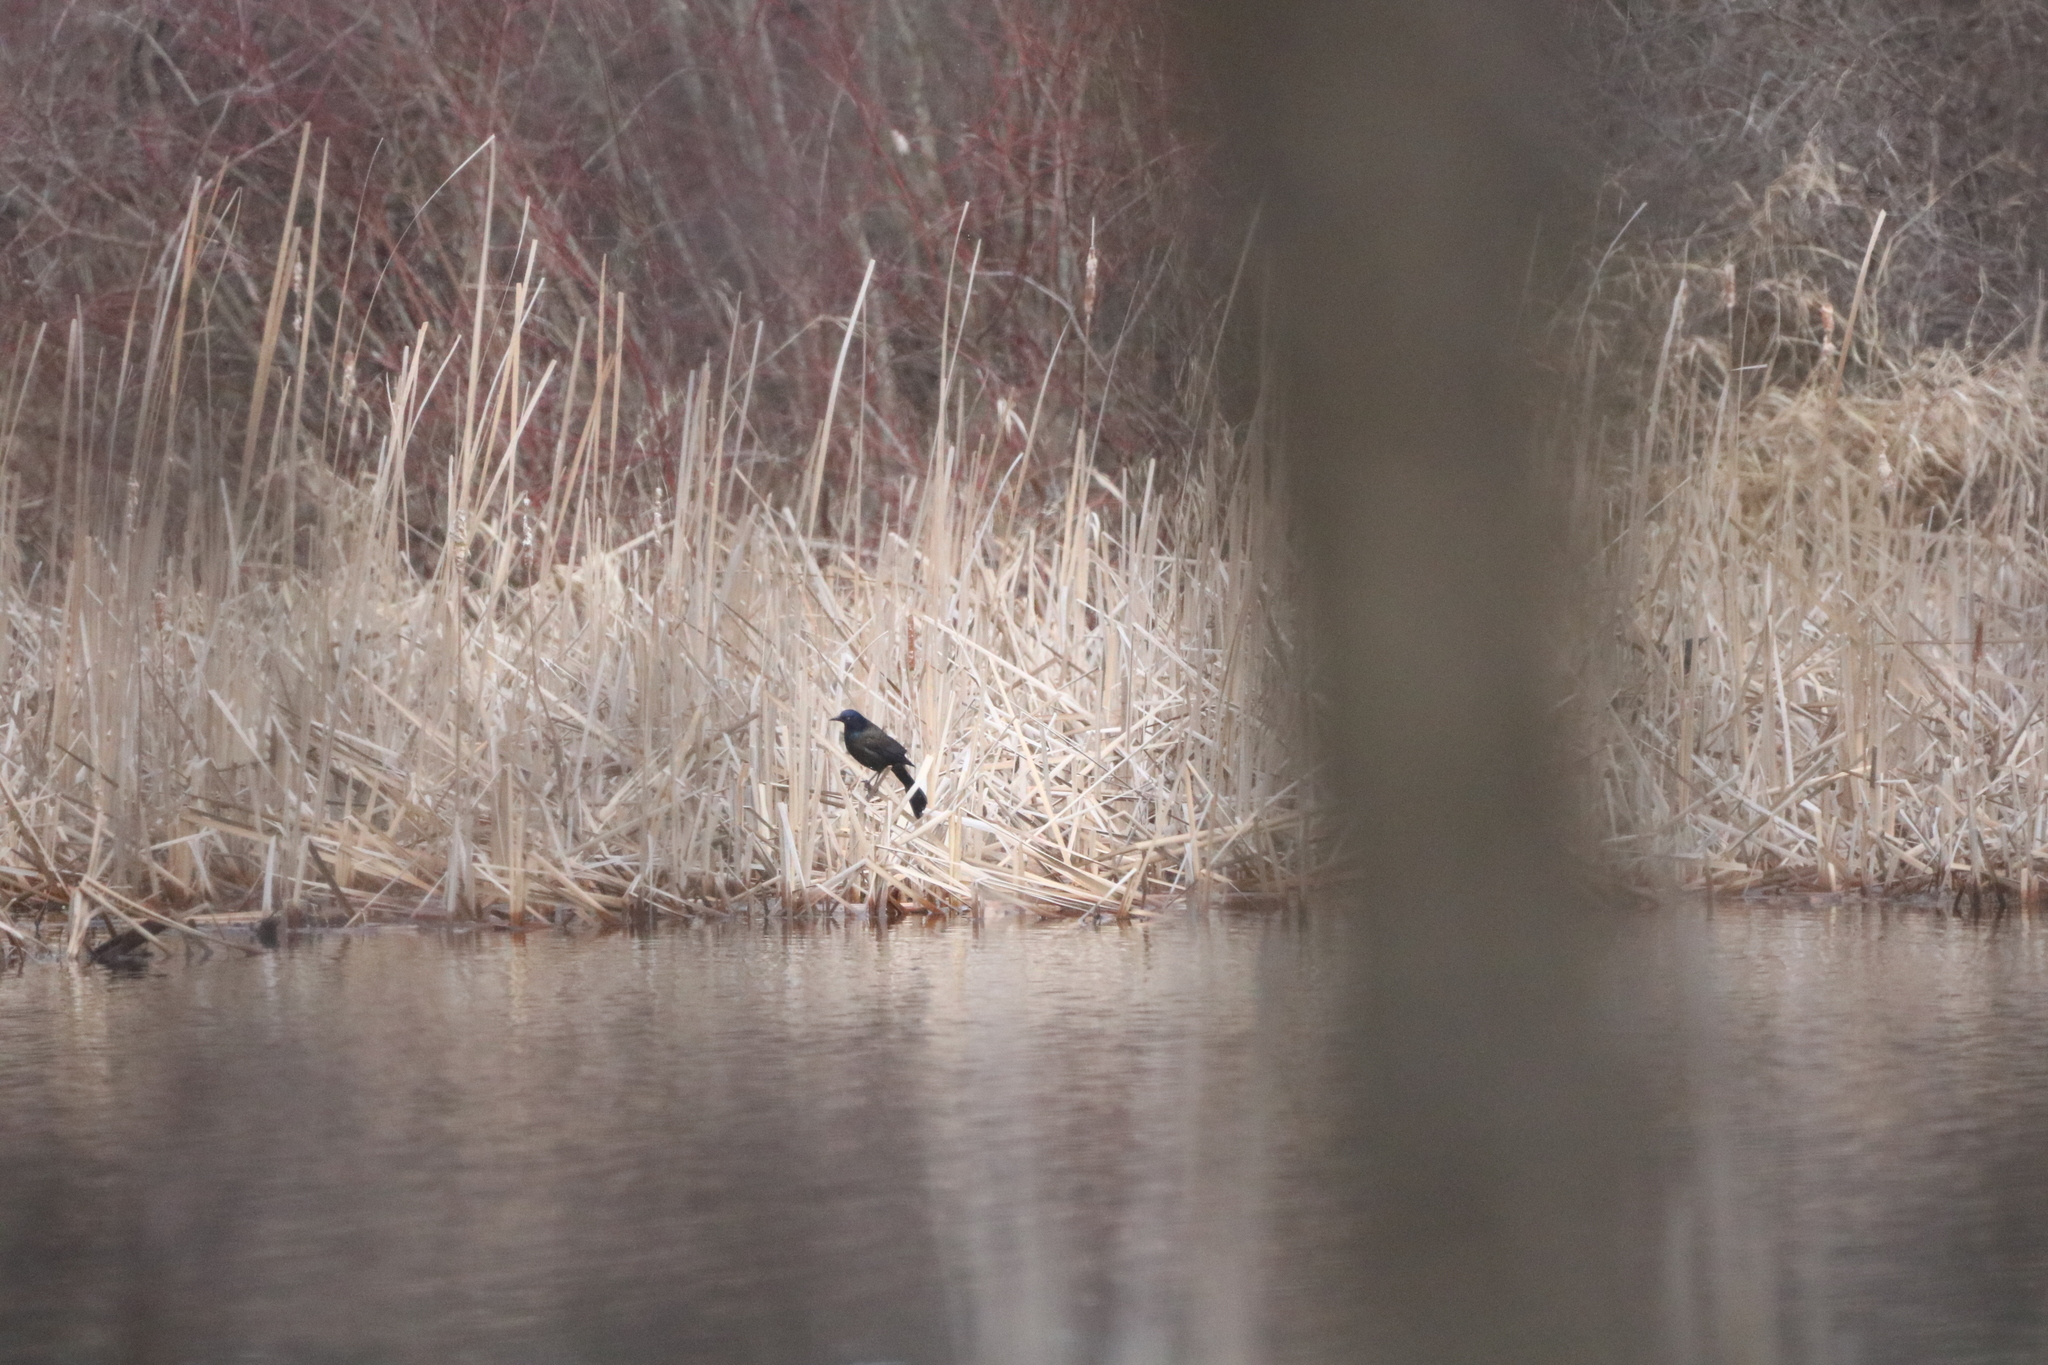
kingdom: Animalia
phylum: Chordata
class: Aves
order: Passeriformes
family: Icteridae
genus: Quiscalus
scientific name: Quiscalus quiscula
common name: Common grackle
